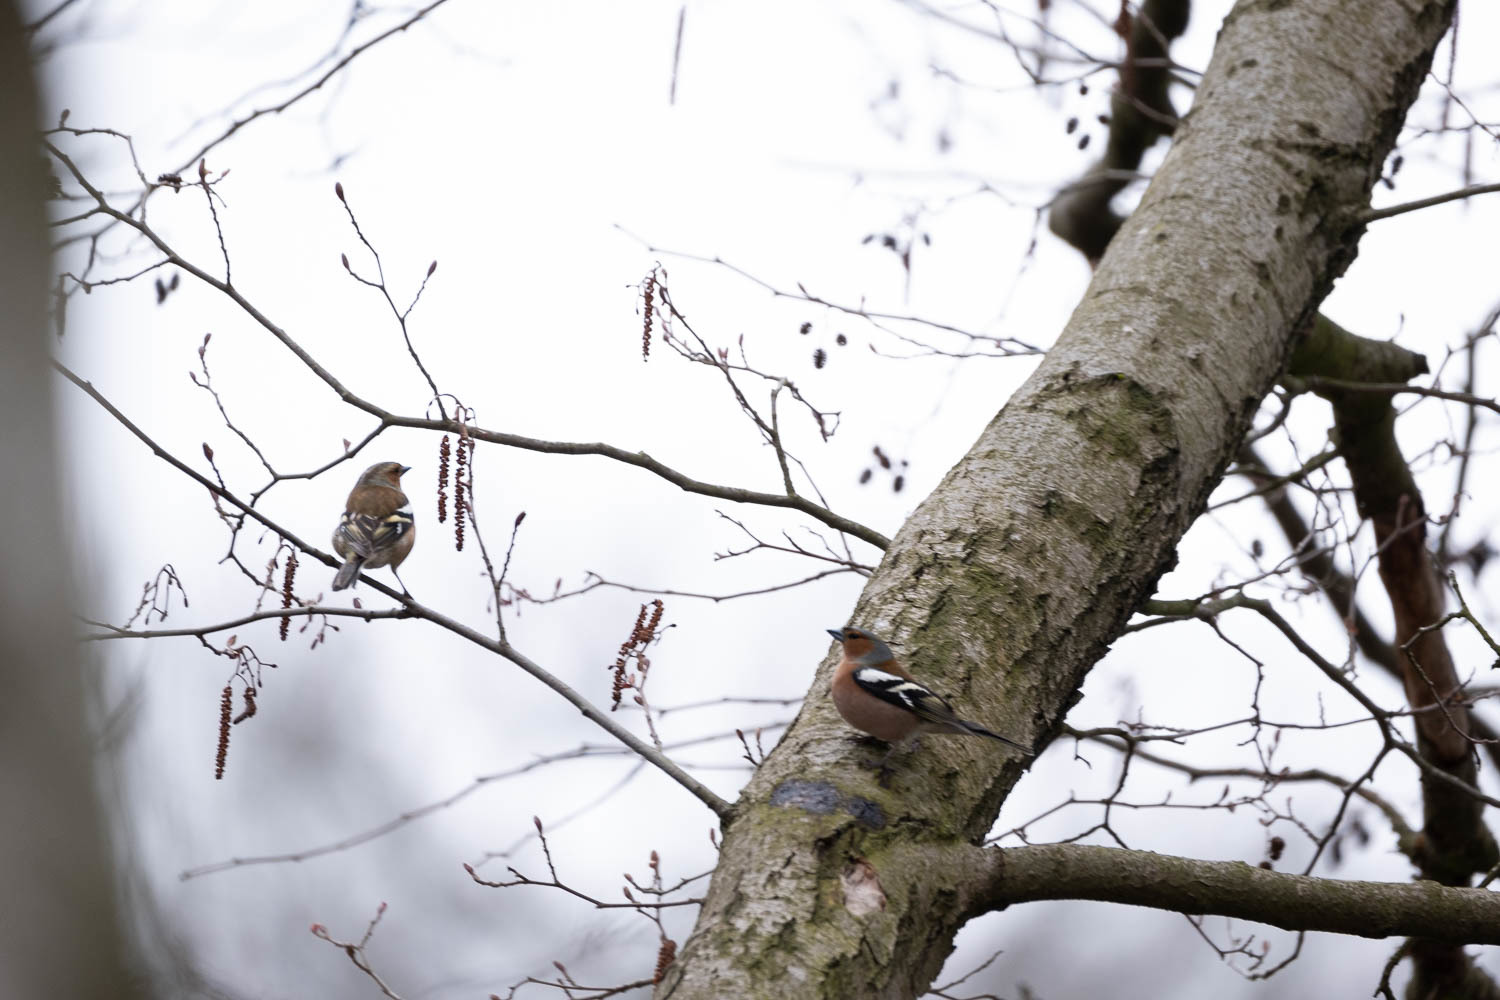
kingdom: Animalia
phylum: Chordata
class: Aves
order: Passeriformes
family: Fringillidae
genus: Fringilla
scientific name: Fringilla coelebs
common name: Common chaffinch
